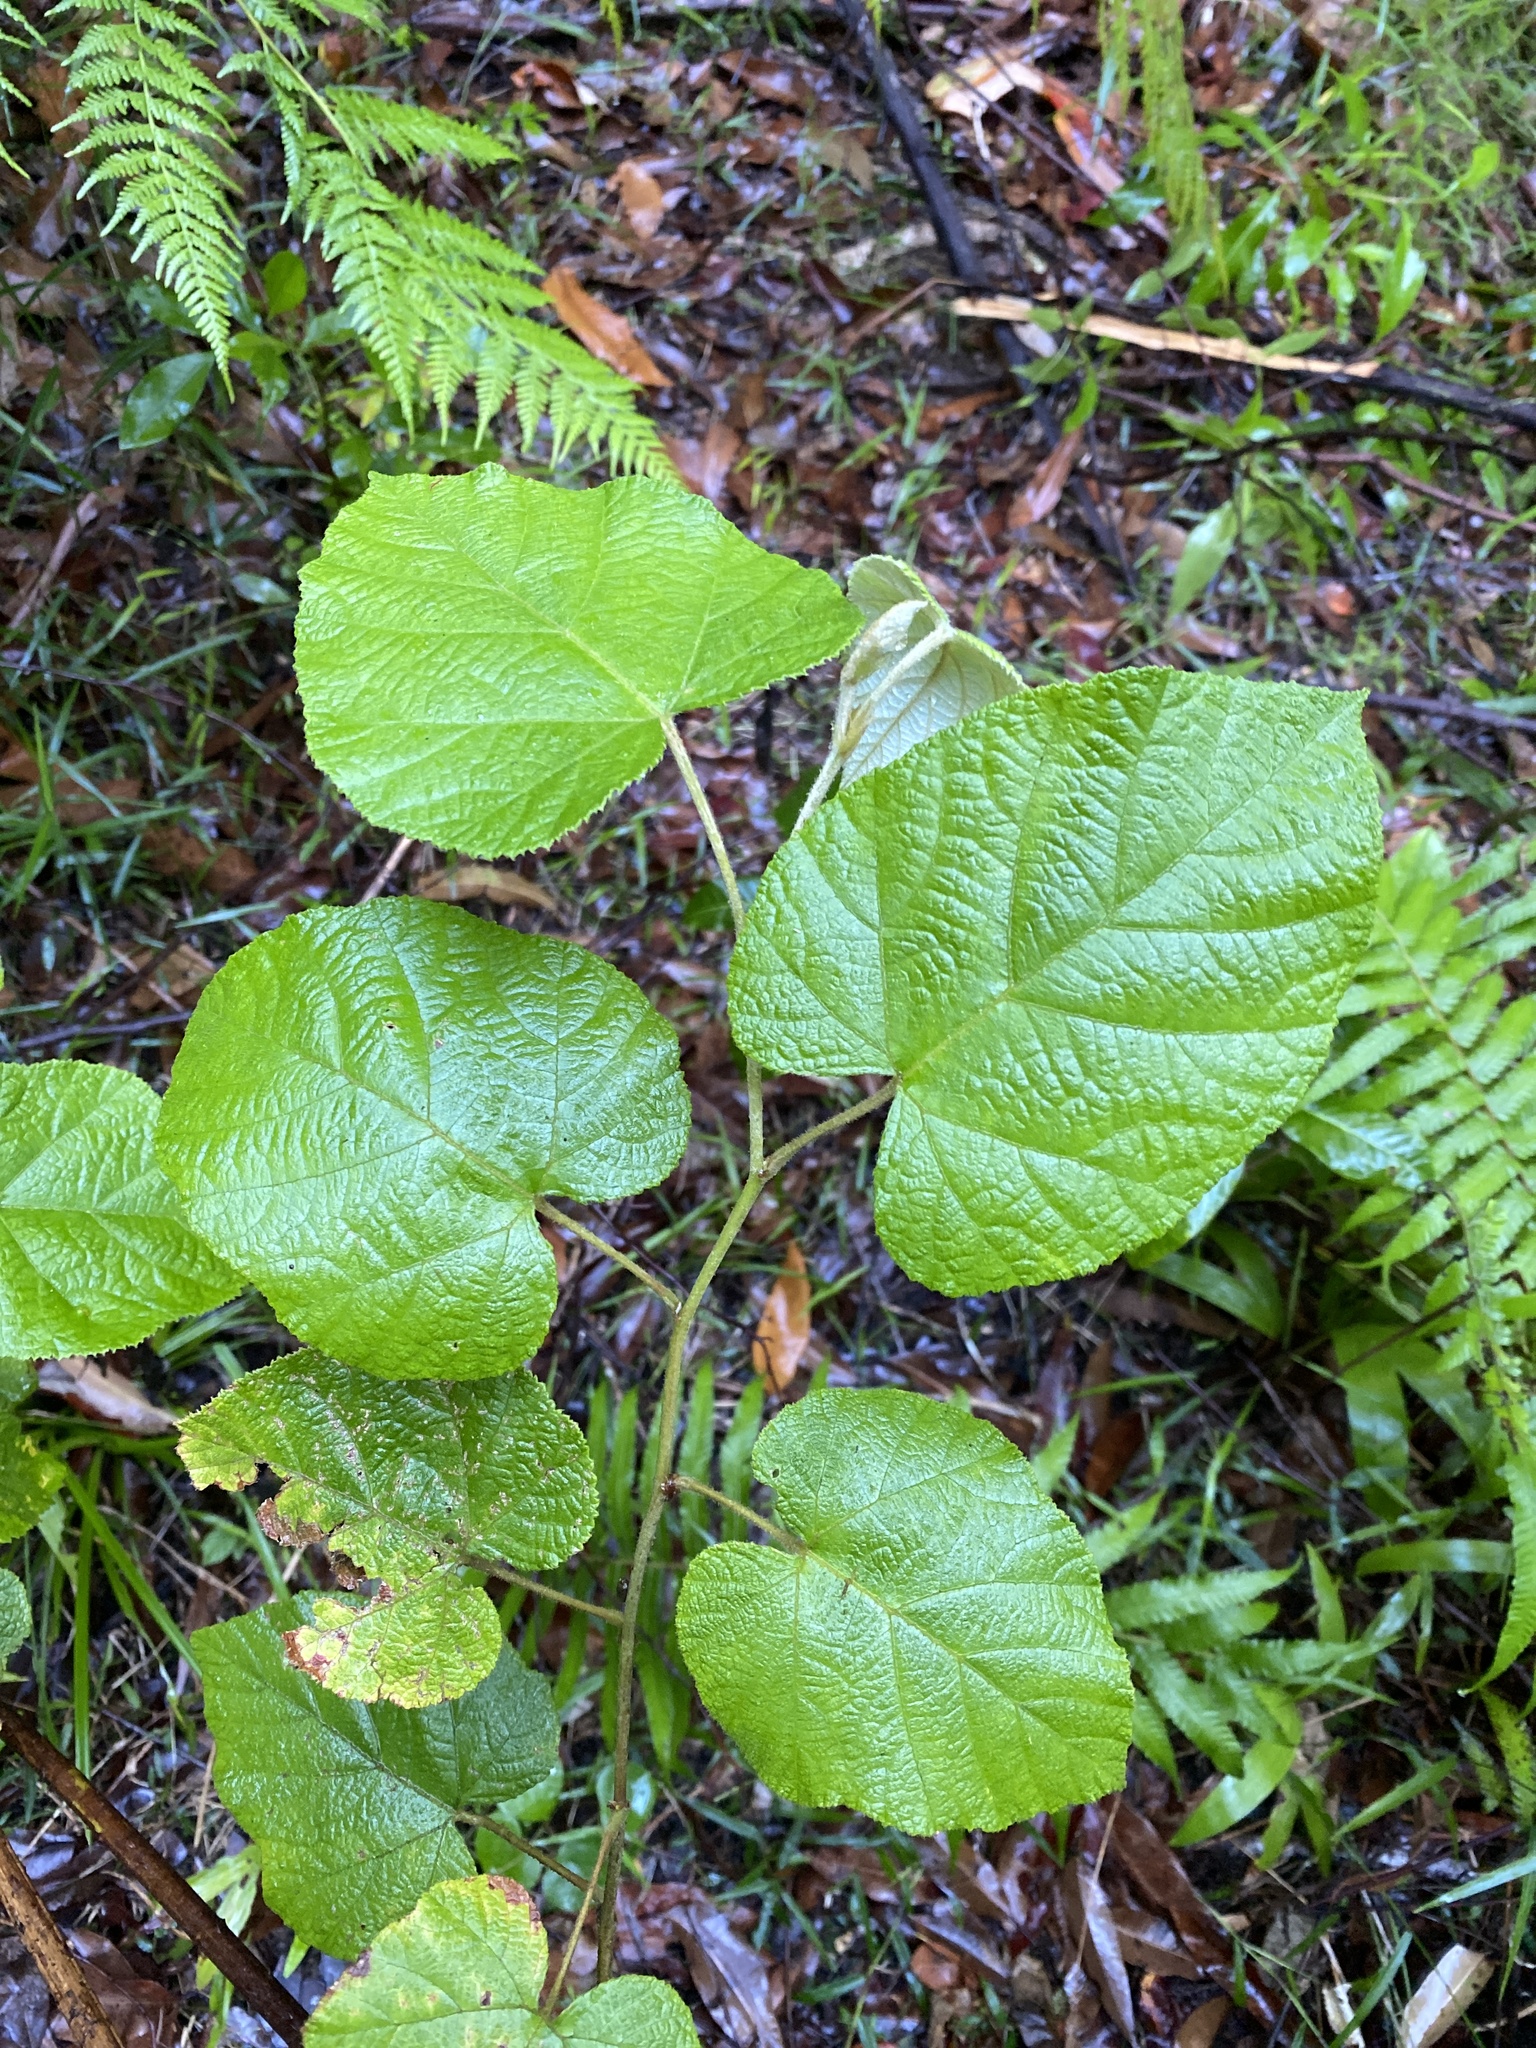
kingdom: Plantae
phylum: Tracheophyta
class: Magnoliopsida
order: Rosales
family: Rosaceae
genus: Rubus
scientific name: Rubus moluccanus
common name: Wild raspberry
